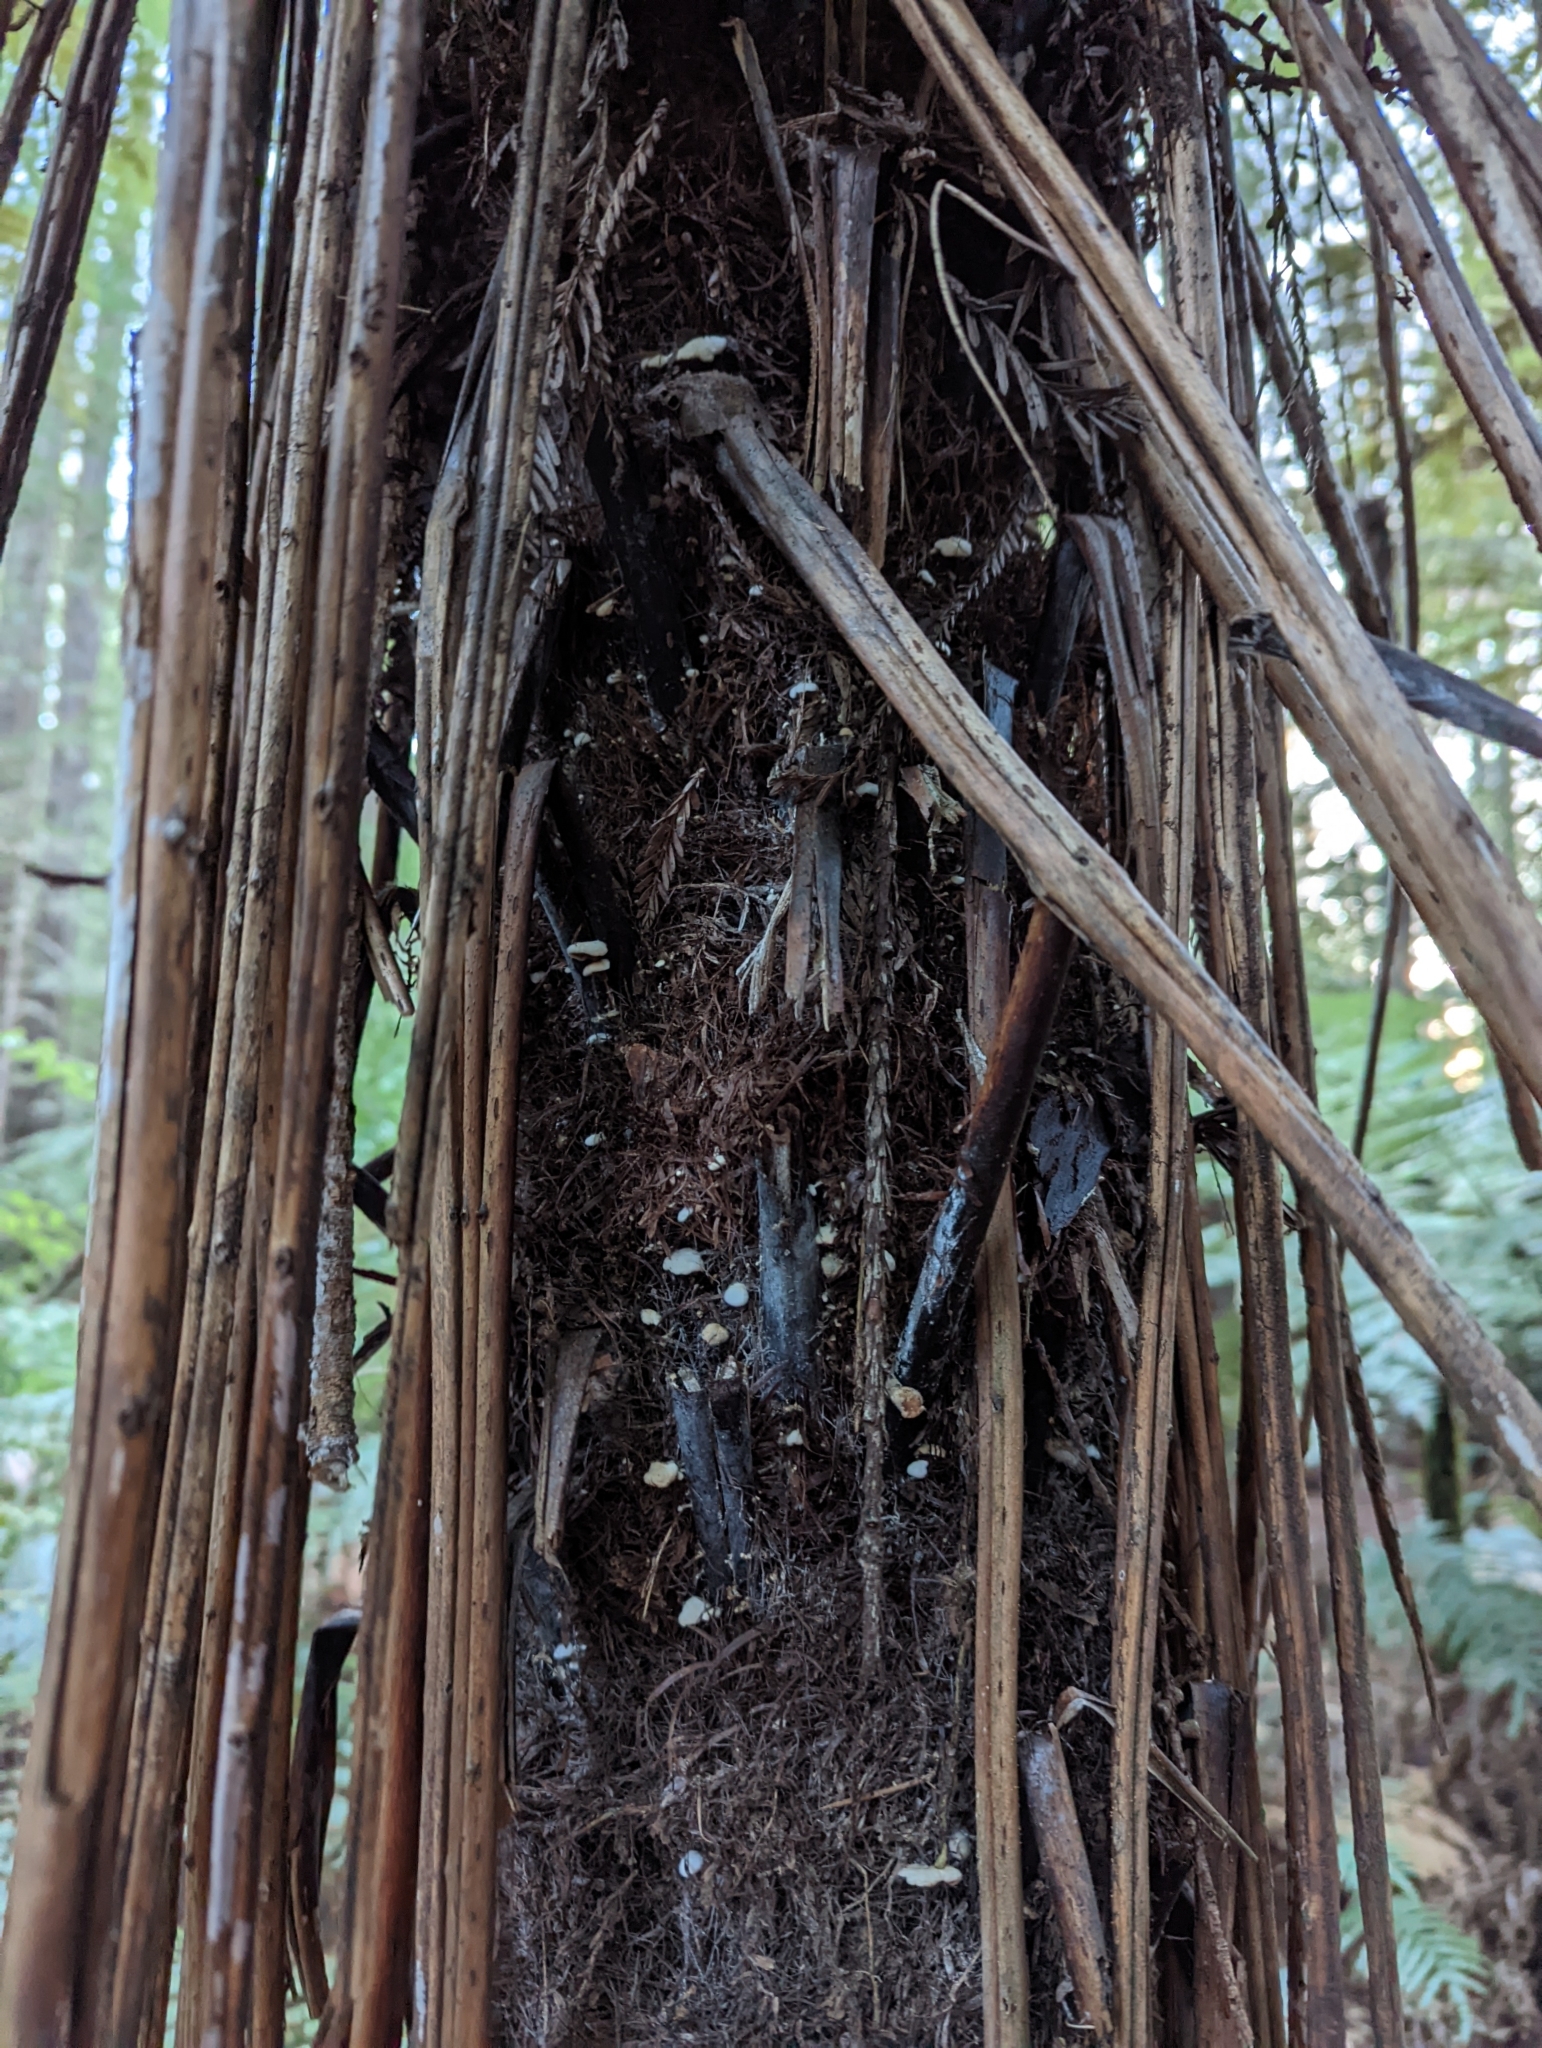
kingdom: Fungi
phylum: Basidiomycota
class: Agaricomycetes
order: Gomphales
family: Clavariadelphaceae
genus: Beenakia
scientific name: Beenakia dacostae
